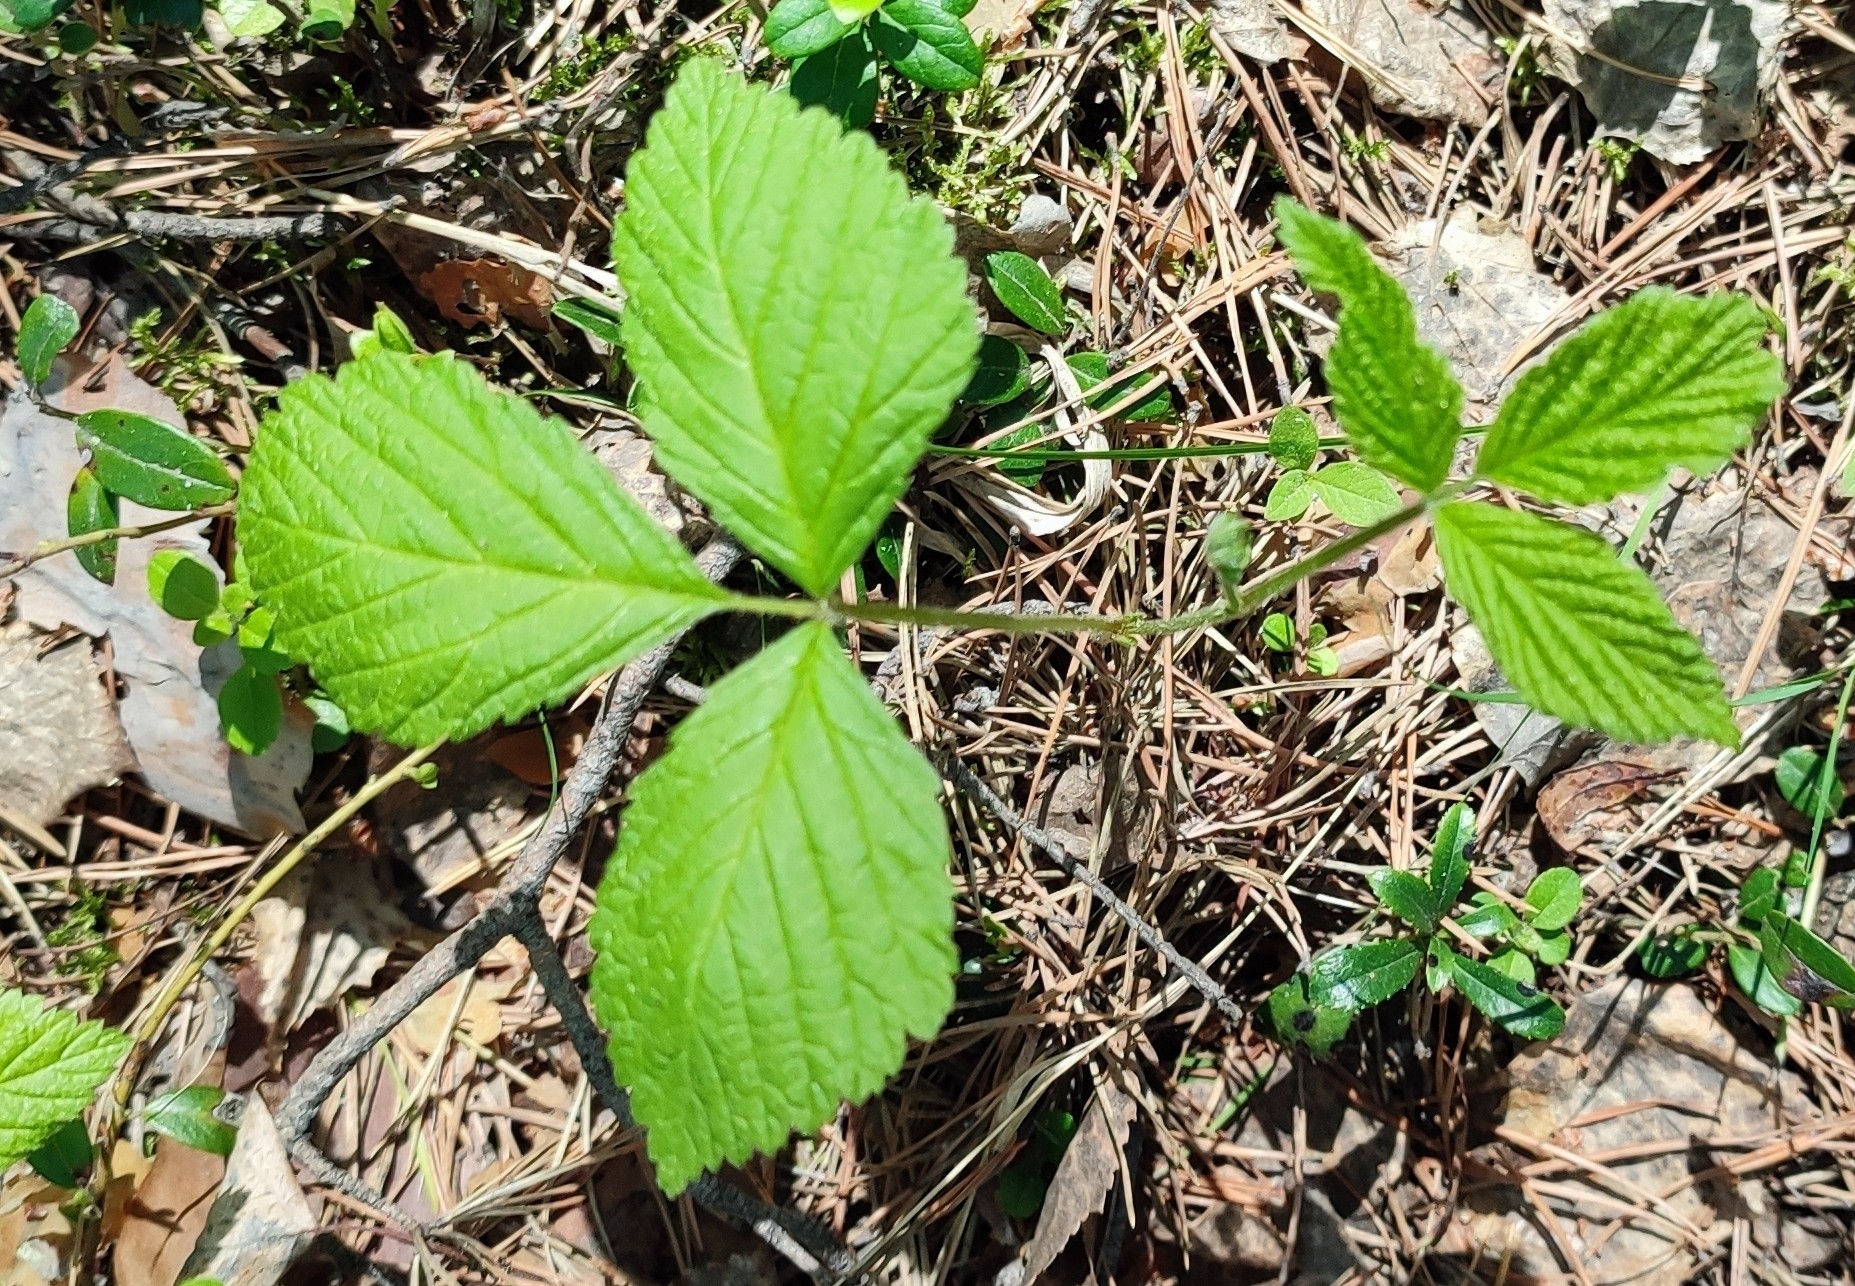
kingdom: Plantae
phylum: Tracheophyta
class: Magnoliopsida
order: Rosales
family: Rosaceae
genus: Rubus
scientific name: Rubus saxatilis
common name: Stone bramble
